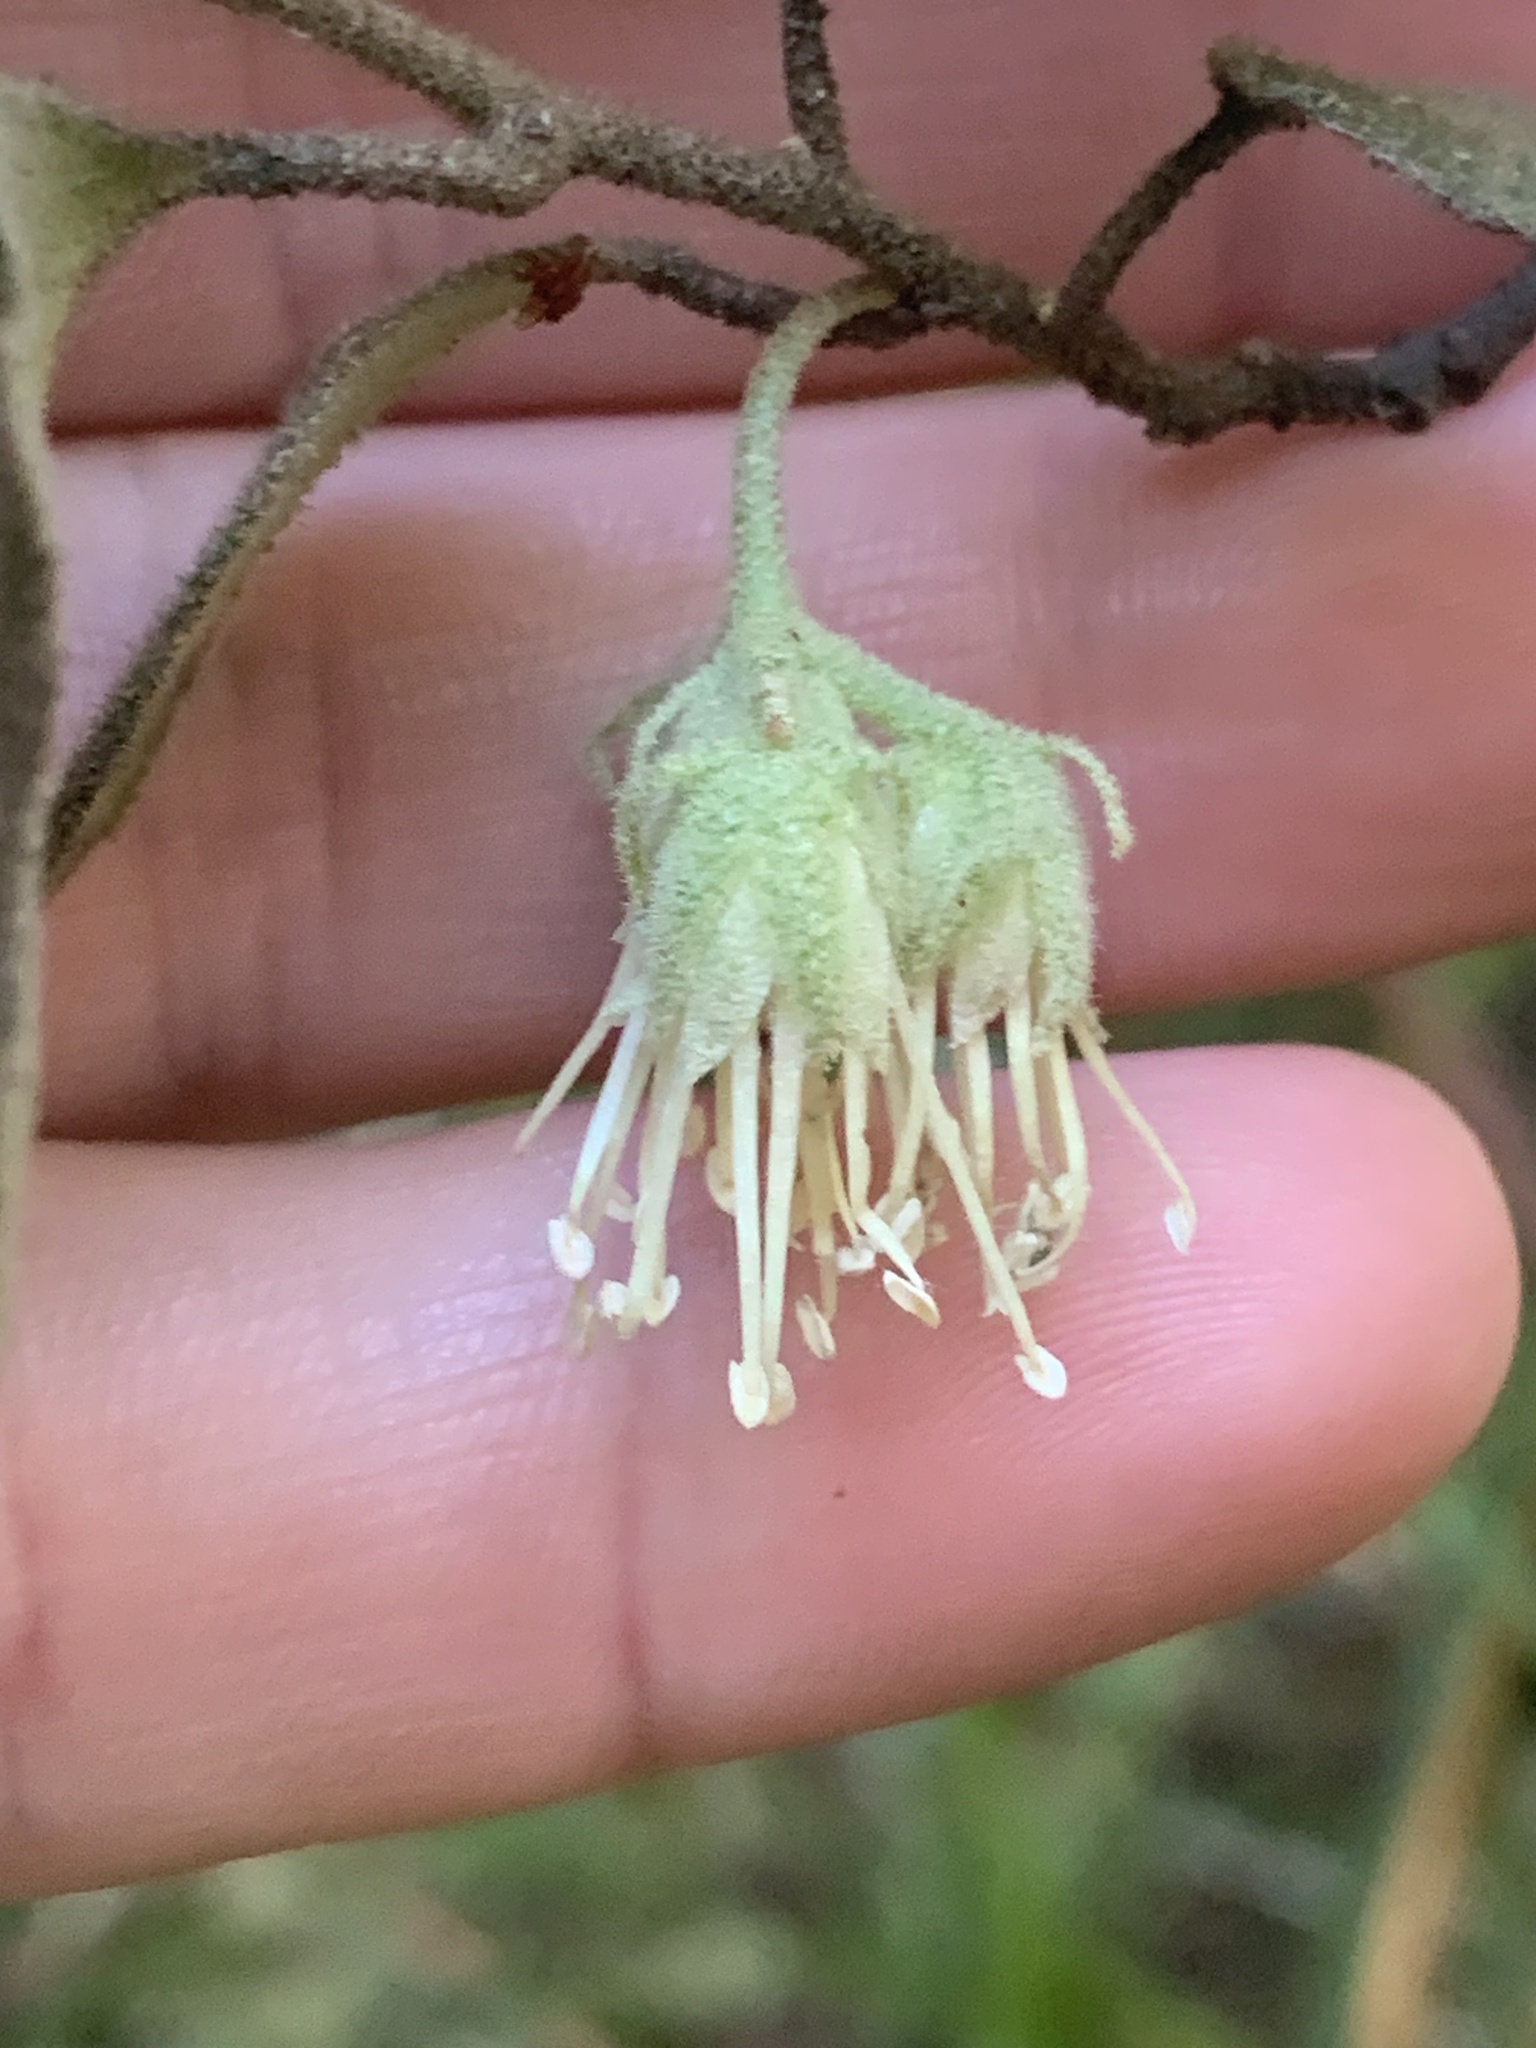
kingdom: Plantae
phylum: Tracheophyta
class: Magnoliopsida
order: Sapindales
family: Rutaceae
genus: Chorilaena
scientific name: Chorilaena quercifolia
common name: Wild hop
